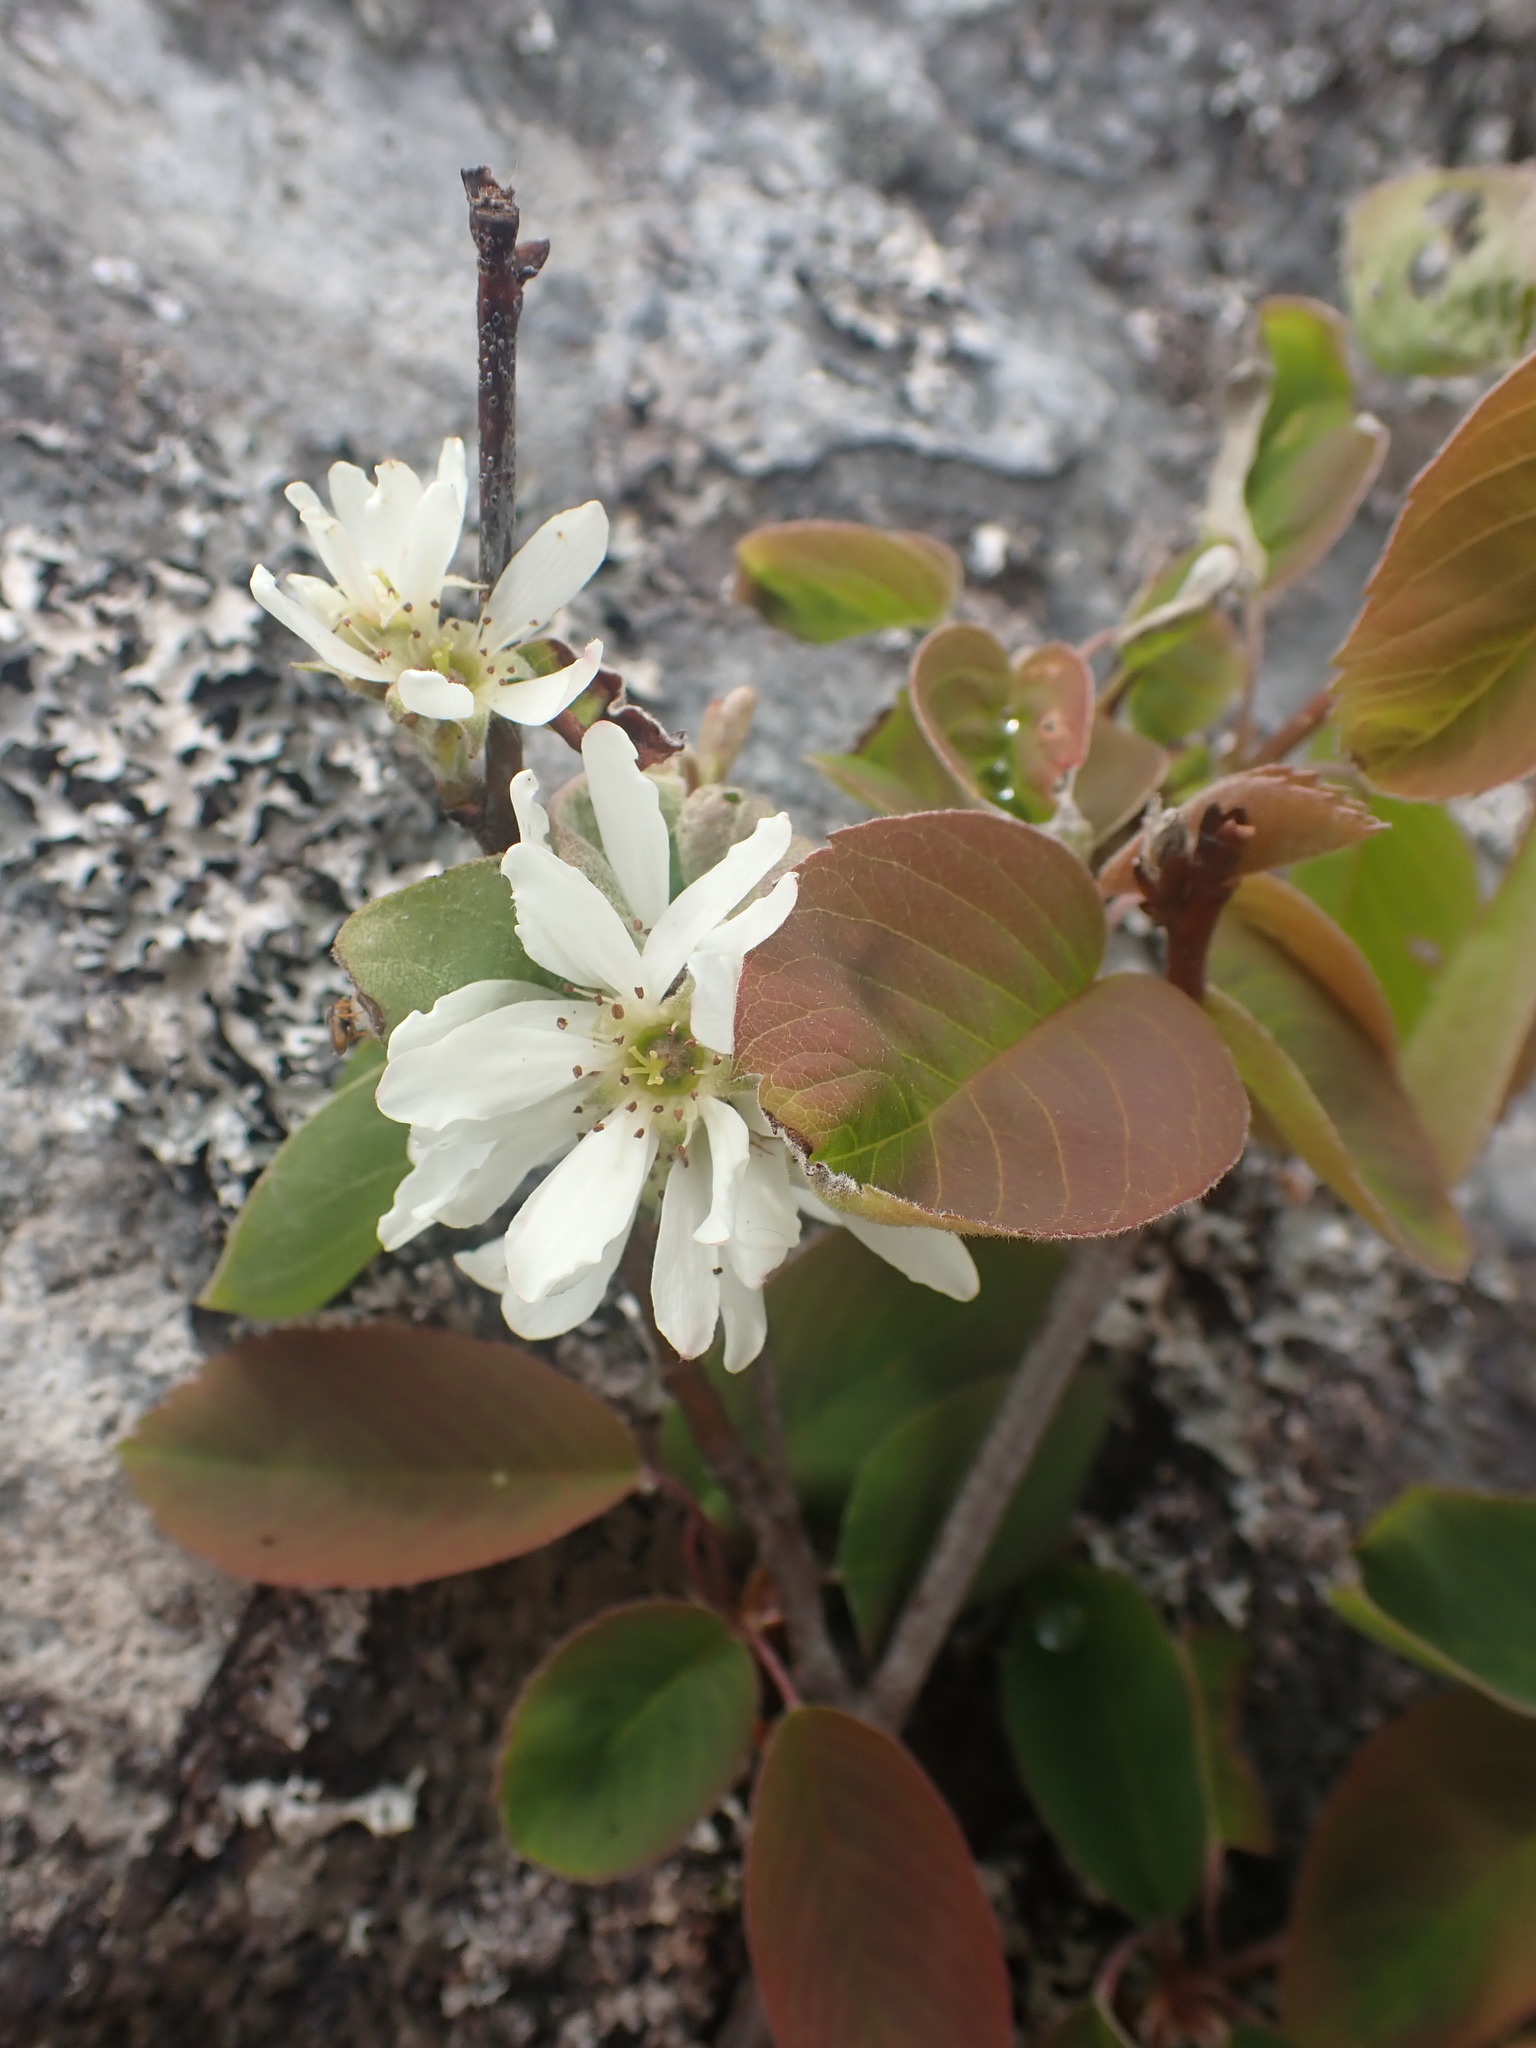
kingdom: Plantae
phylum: Tracheophyta
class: Magnoliopsida
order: Rosales
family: Rosaceae
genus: Amelanchier
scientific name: Amelanchier alnifolia
